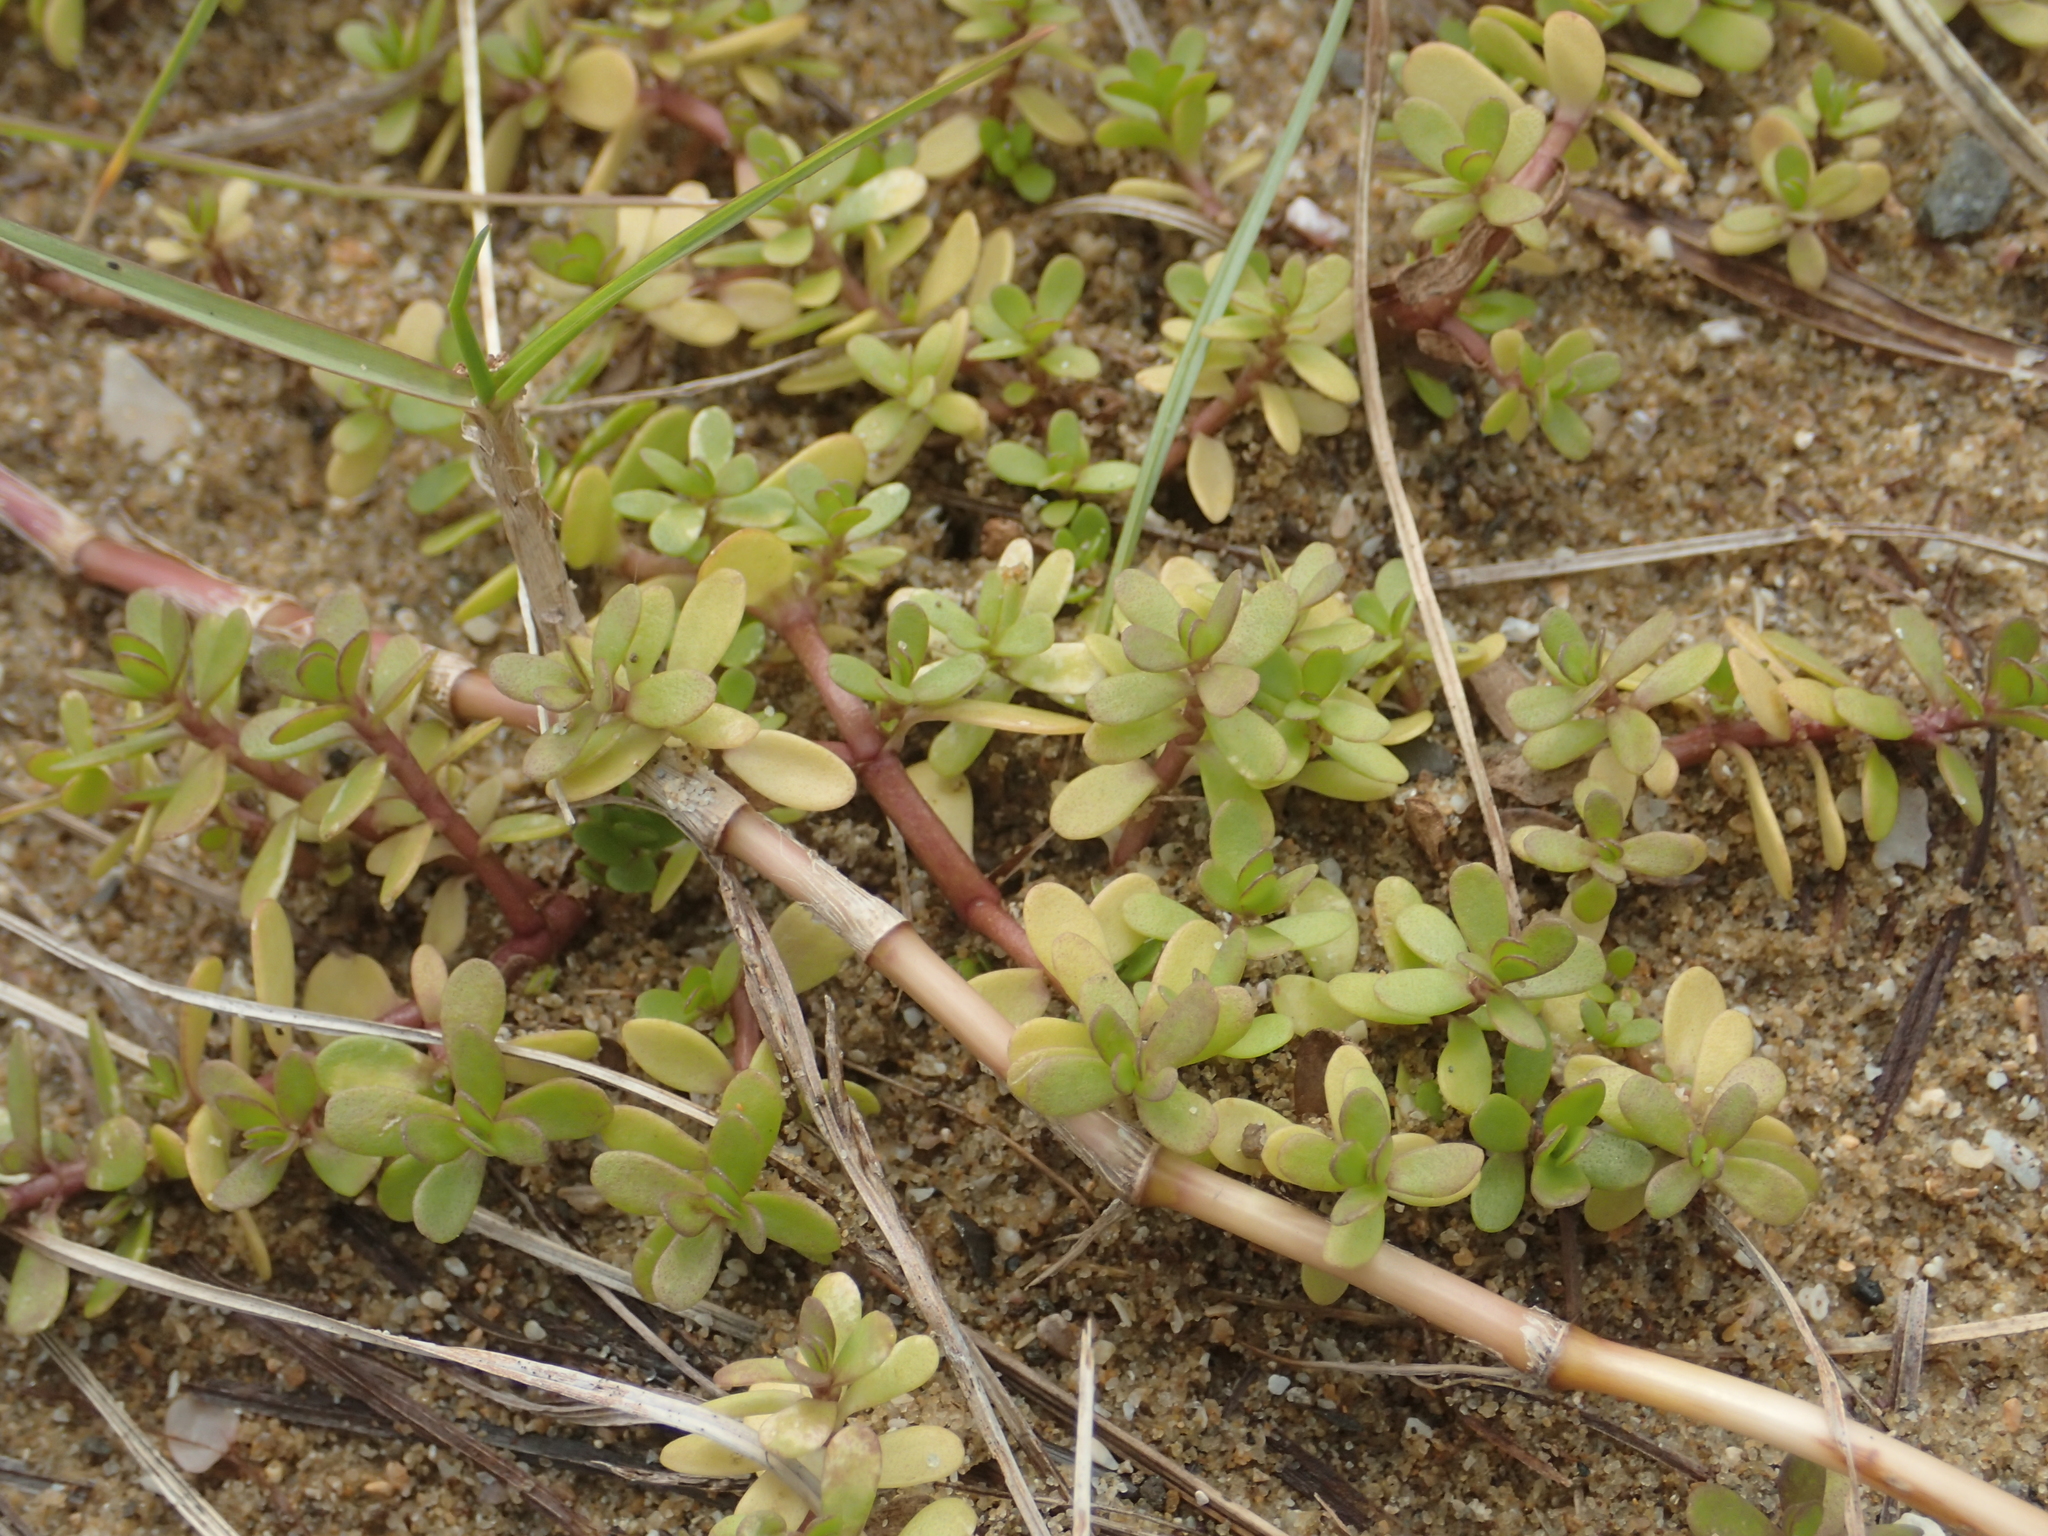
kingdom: Plantae
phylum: Tracheophyta
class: Magnoliopsida
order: Lamiales
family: Plantaginaceae
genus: Bacopa
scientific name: Bacopa monnieri
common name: Indian-pennywort
